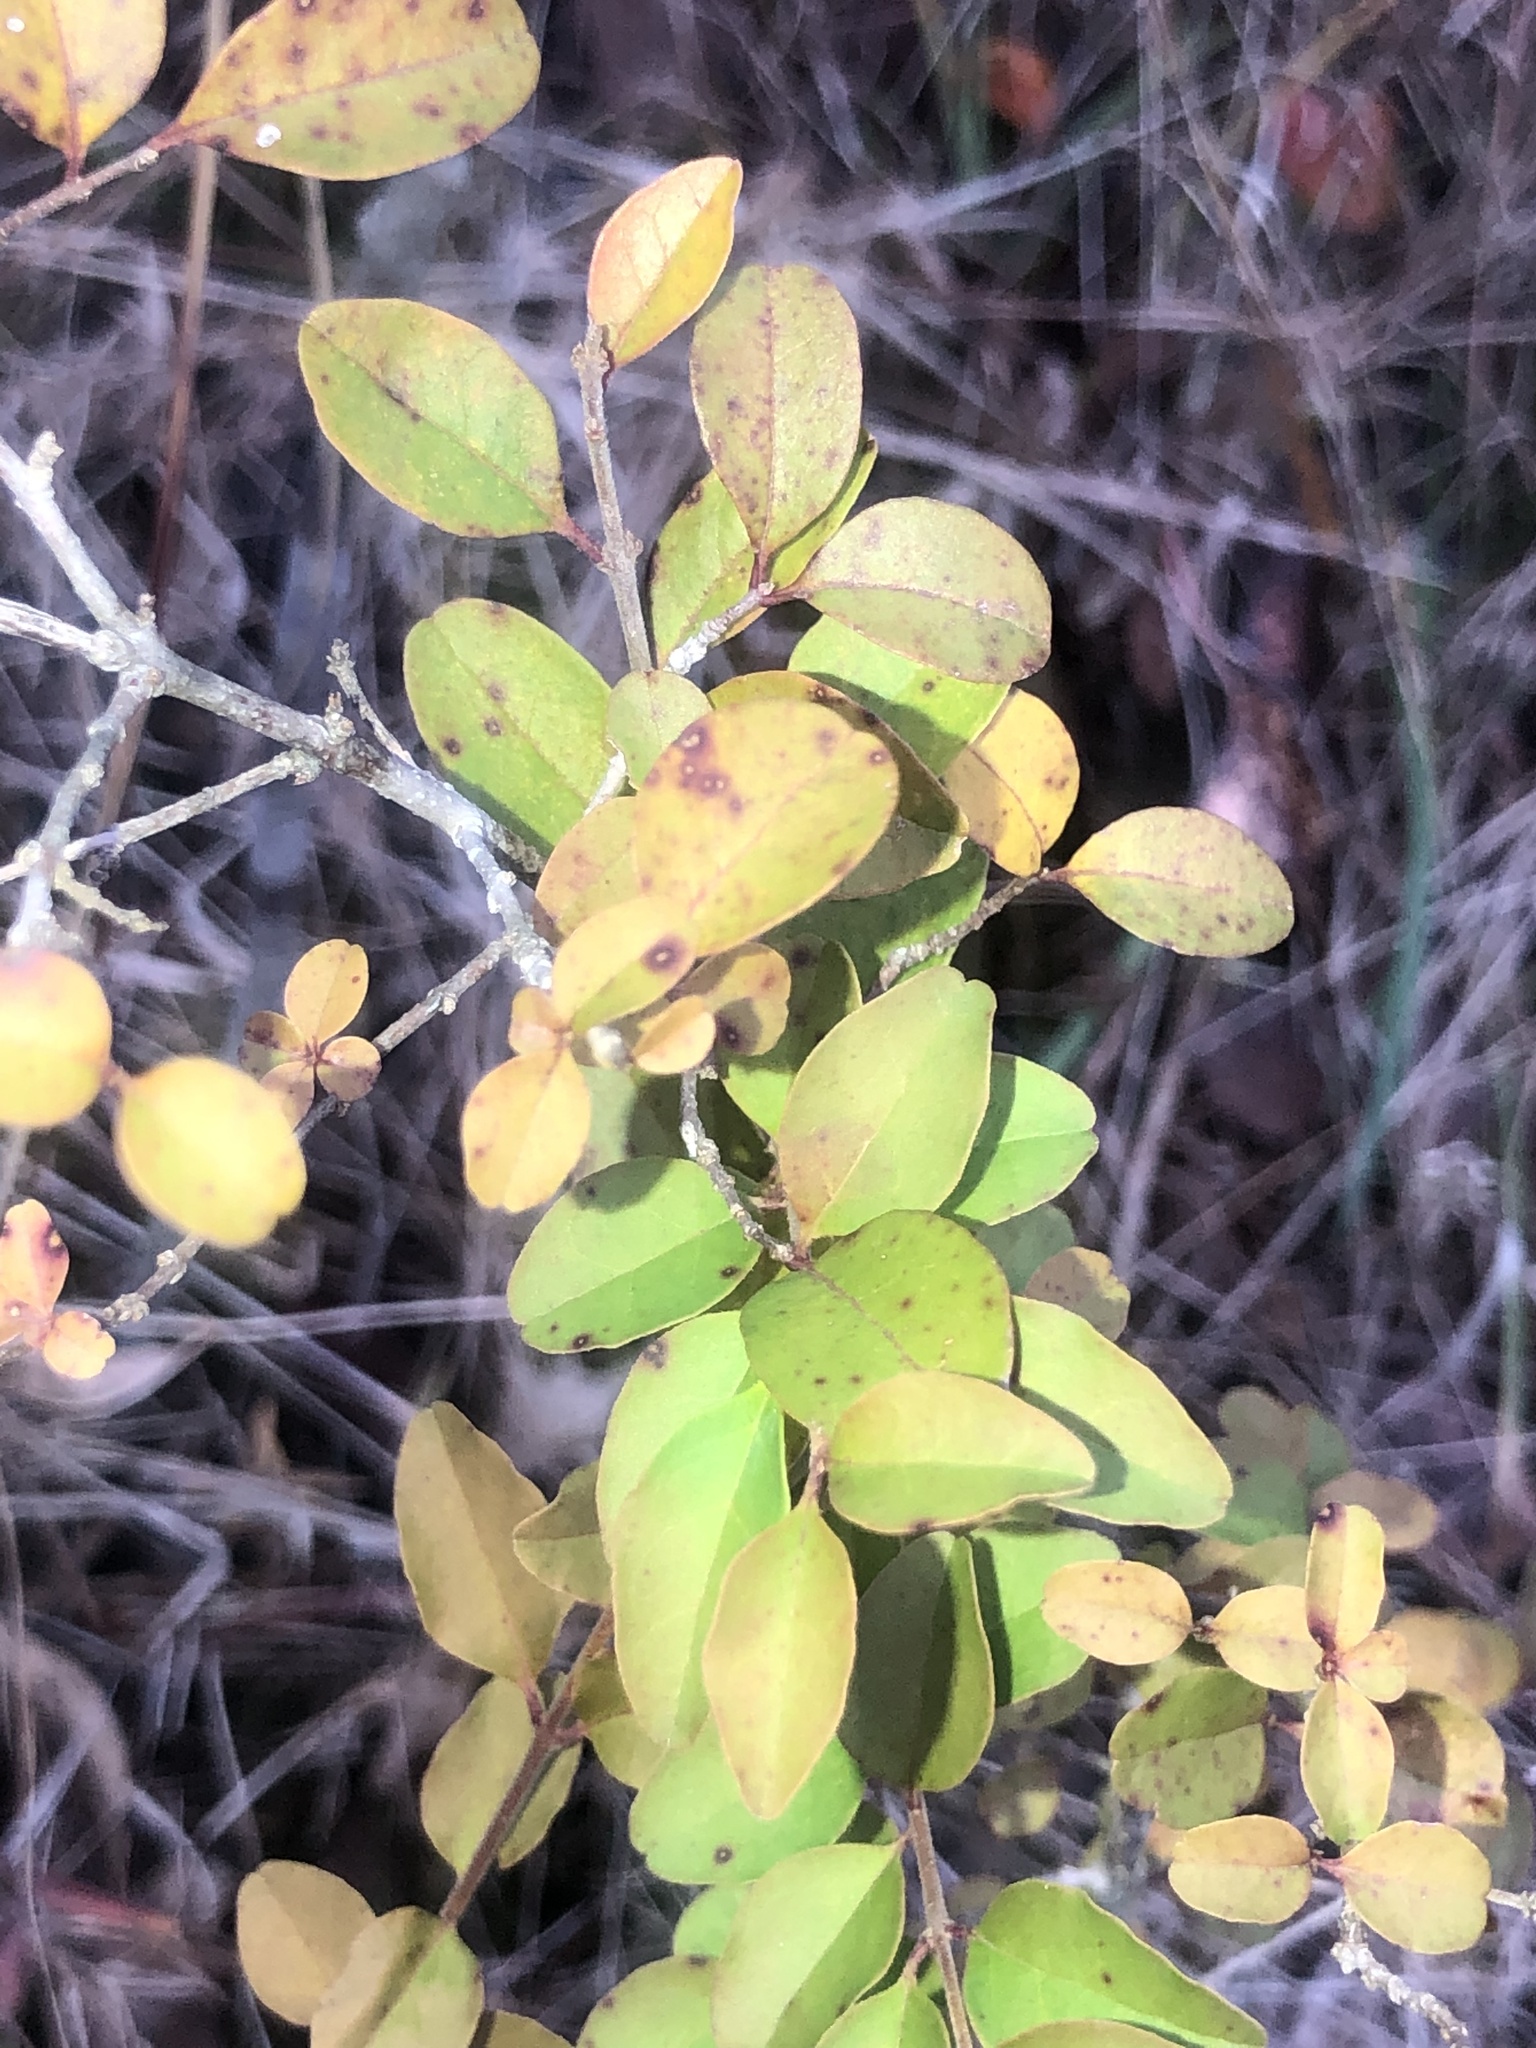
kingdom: Plantae
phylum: Tracheophyta
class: Magnoliopsida
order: Lamiales
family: Oleaceae
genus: Ligustrum
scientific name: Ligustrum sinense
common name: Chinese privet
